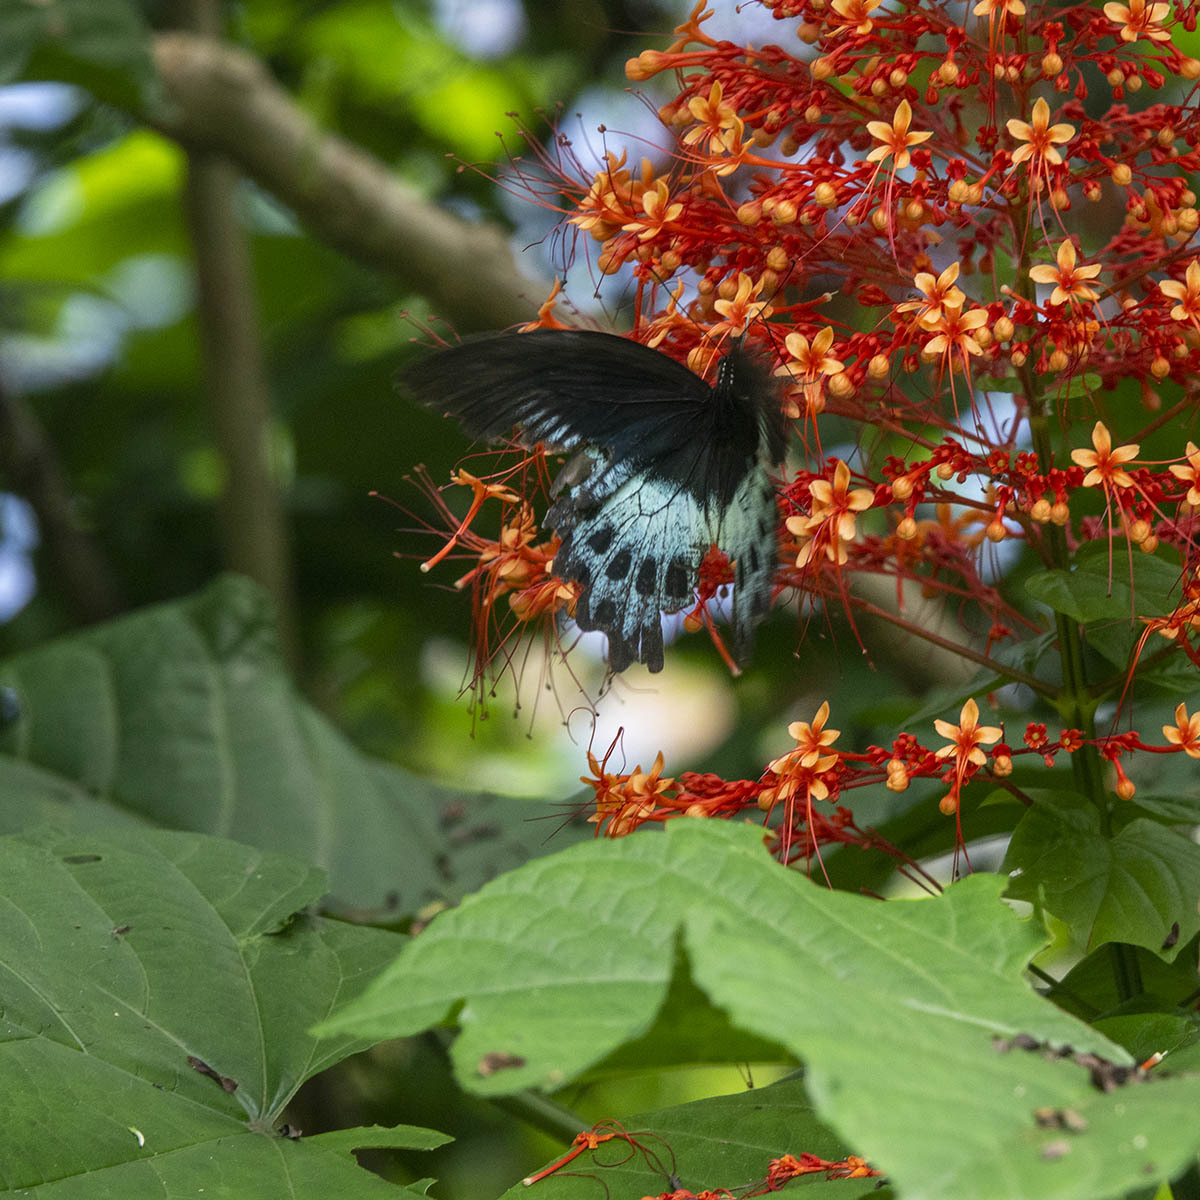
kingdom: Animalia
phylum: Arthropoda
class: Insecta
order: Lepidoptera
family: Papilionidae
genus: Papilio
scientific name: Papilio memnon
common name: Great mormon
